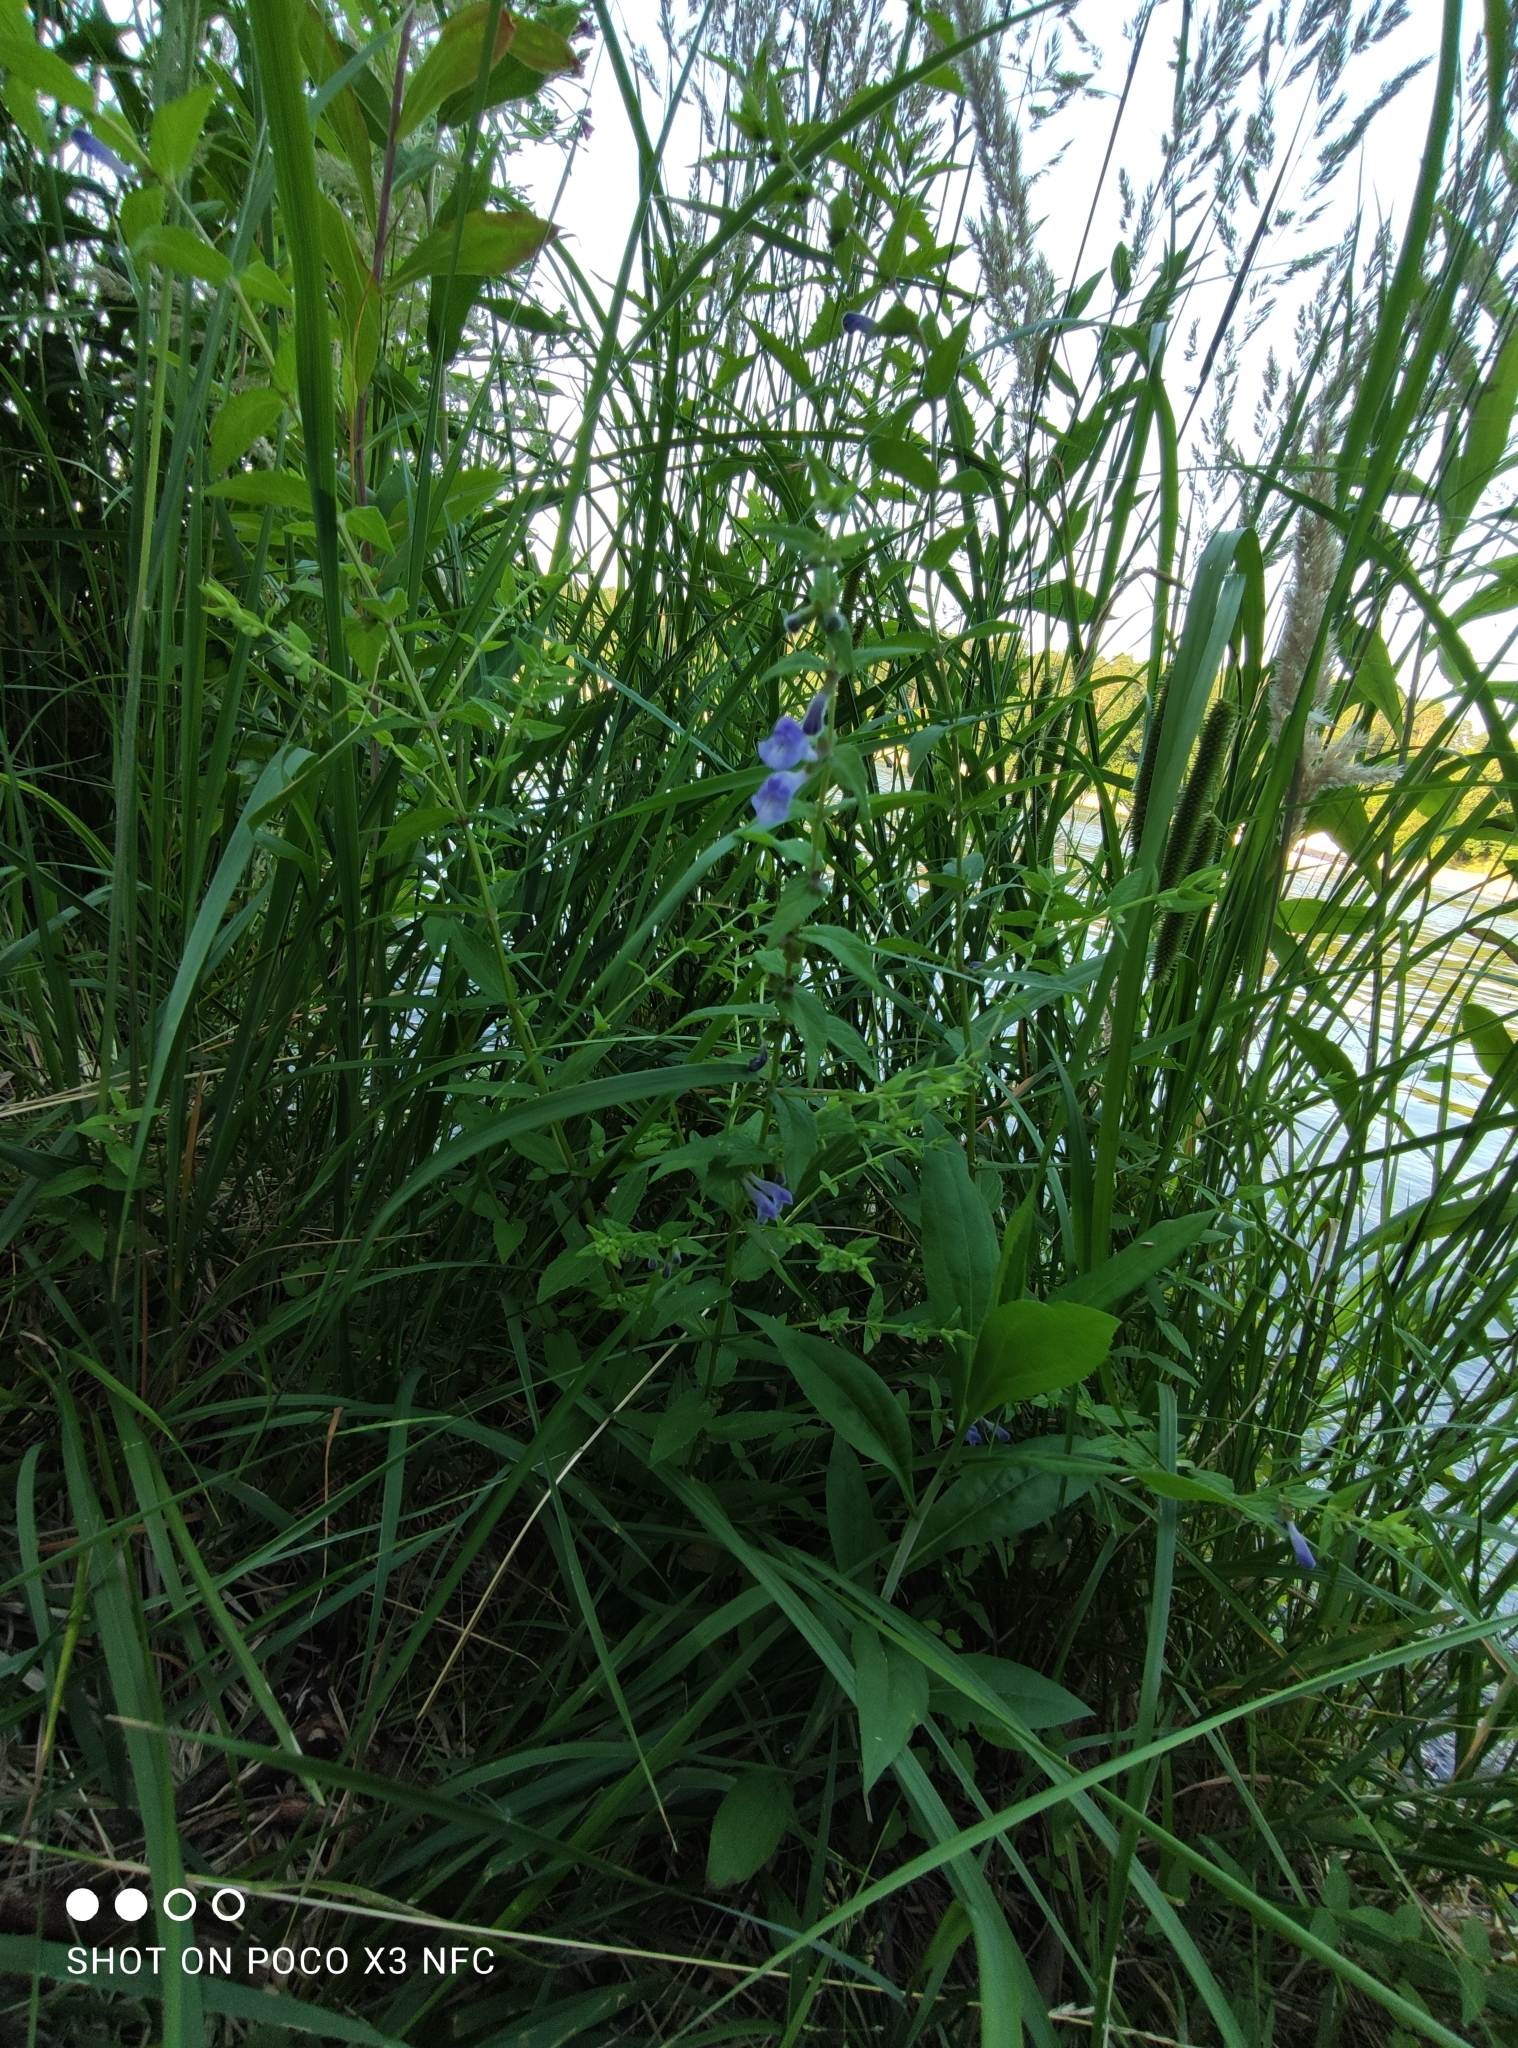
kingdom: Plantae
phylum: Tracheophyta
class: Magnoliopsida
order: Lamiales
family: Lamiaceae
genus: Scutellaria
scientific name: Scutellaria galericulata
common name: Skullcap
